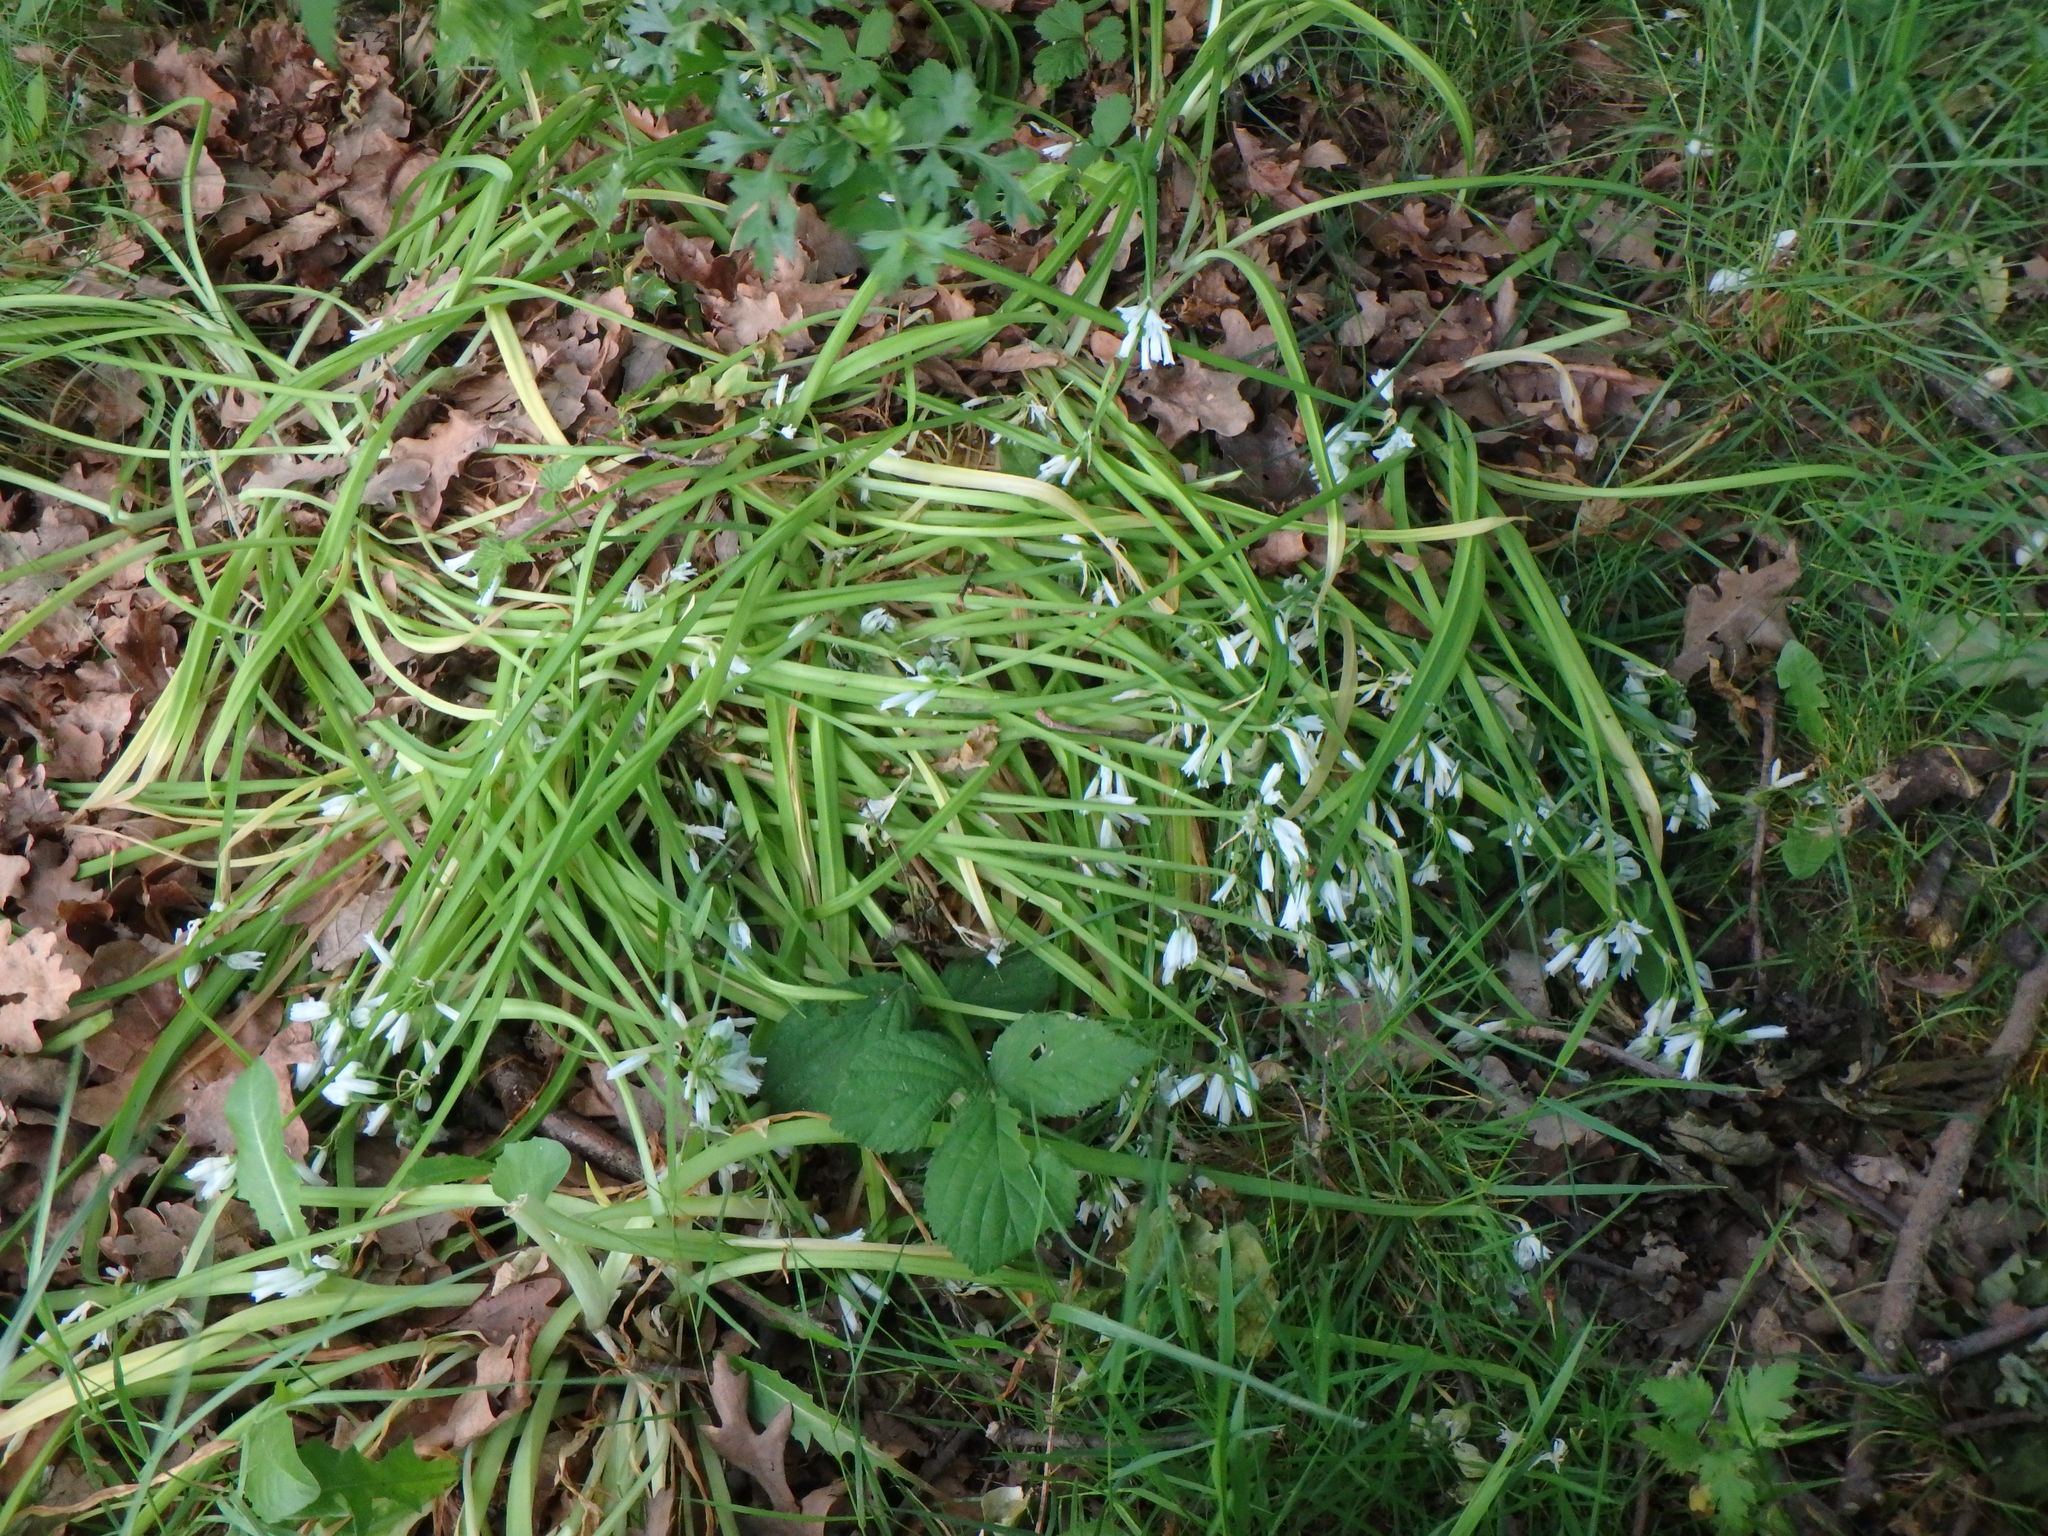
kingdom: Plantae
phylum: Tracheophyta
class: Liliopsida
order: Asparagales
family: Amaryllidaceae
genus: Allium
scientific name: Allium triquetrum
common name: Three-cornered garlic
